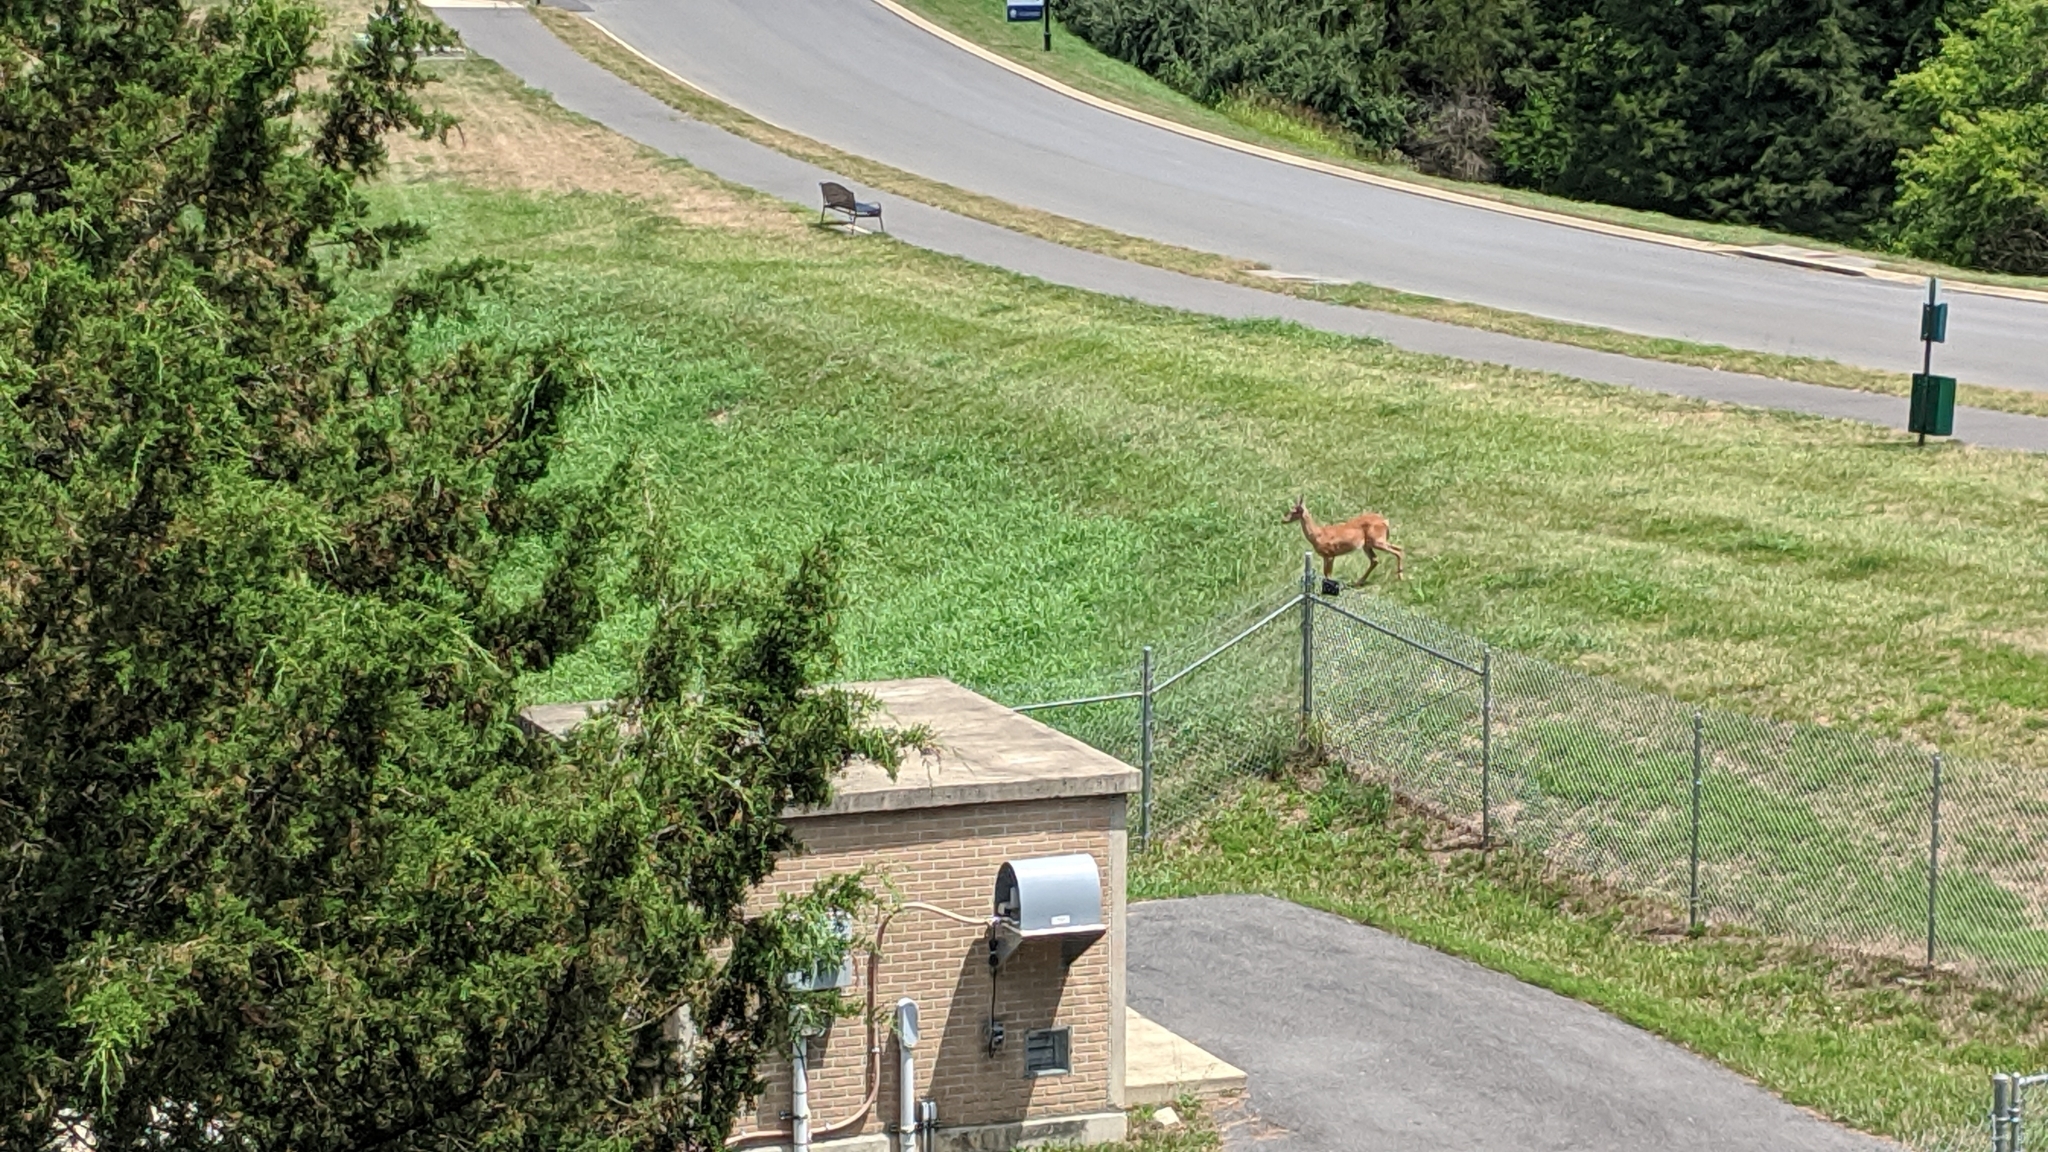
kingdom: Animalia
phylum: Chordata
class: Mammalia
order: Artiodactyla
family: Cervidae
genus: Odocoileus
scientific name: Odocoileus virginianus
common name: White-tailed deer
